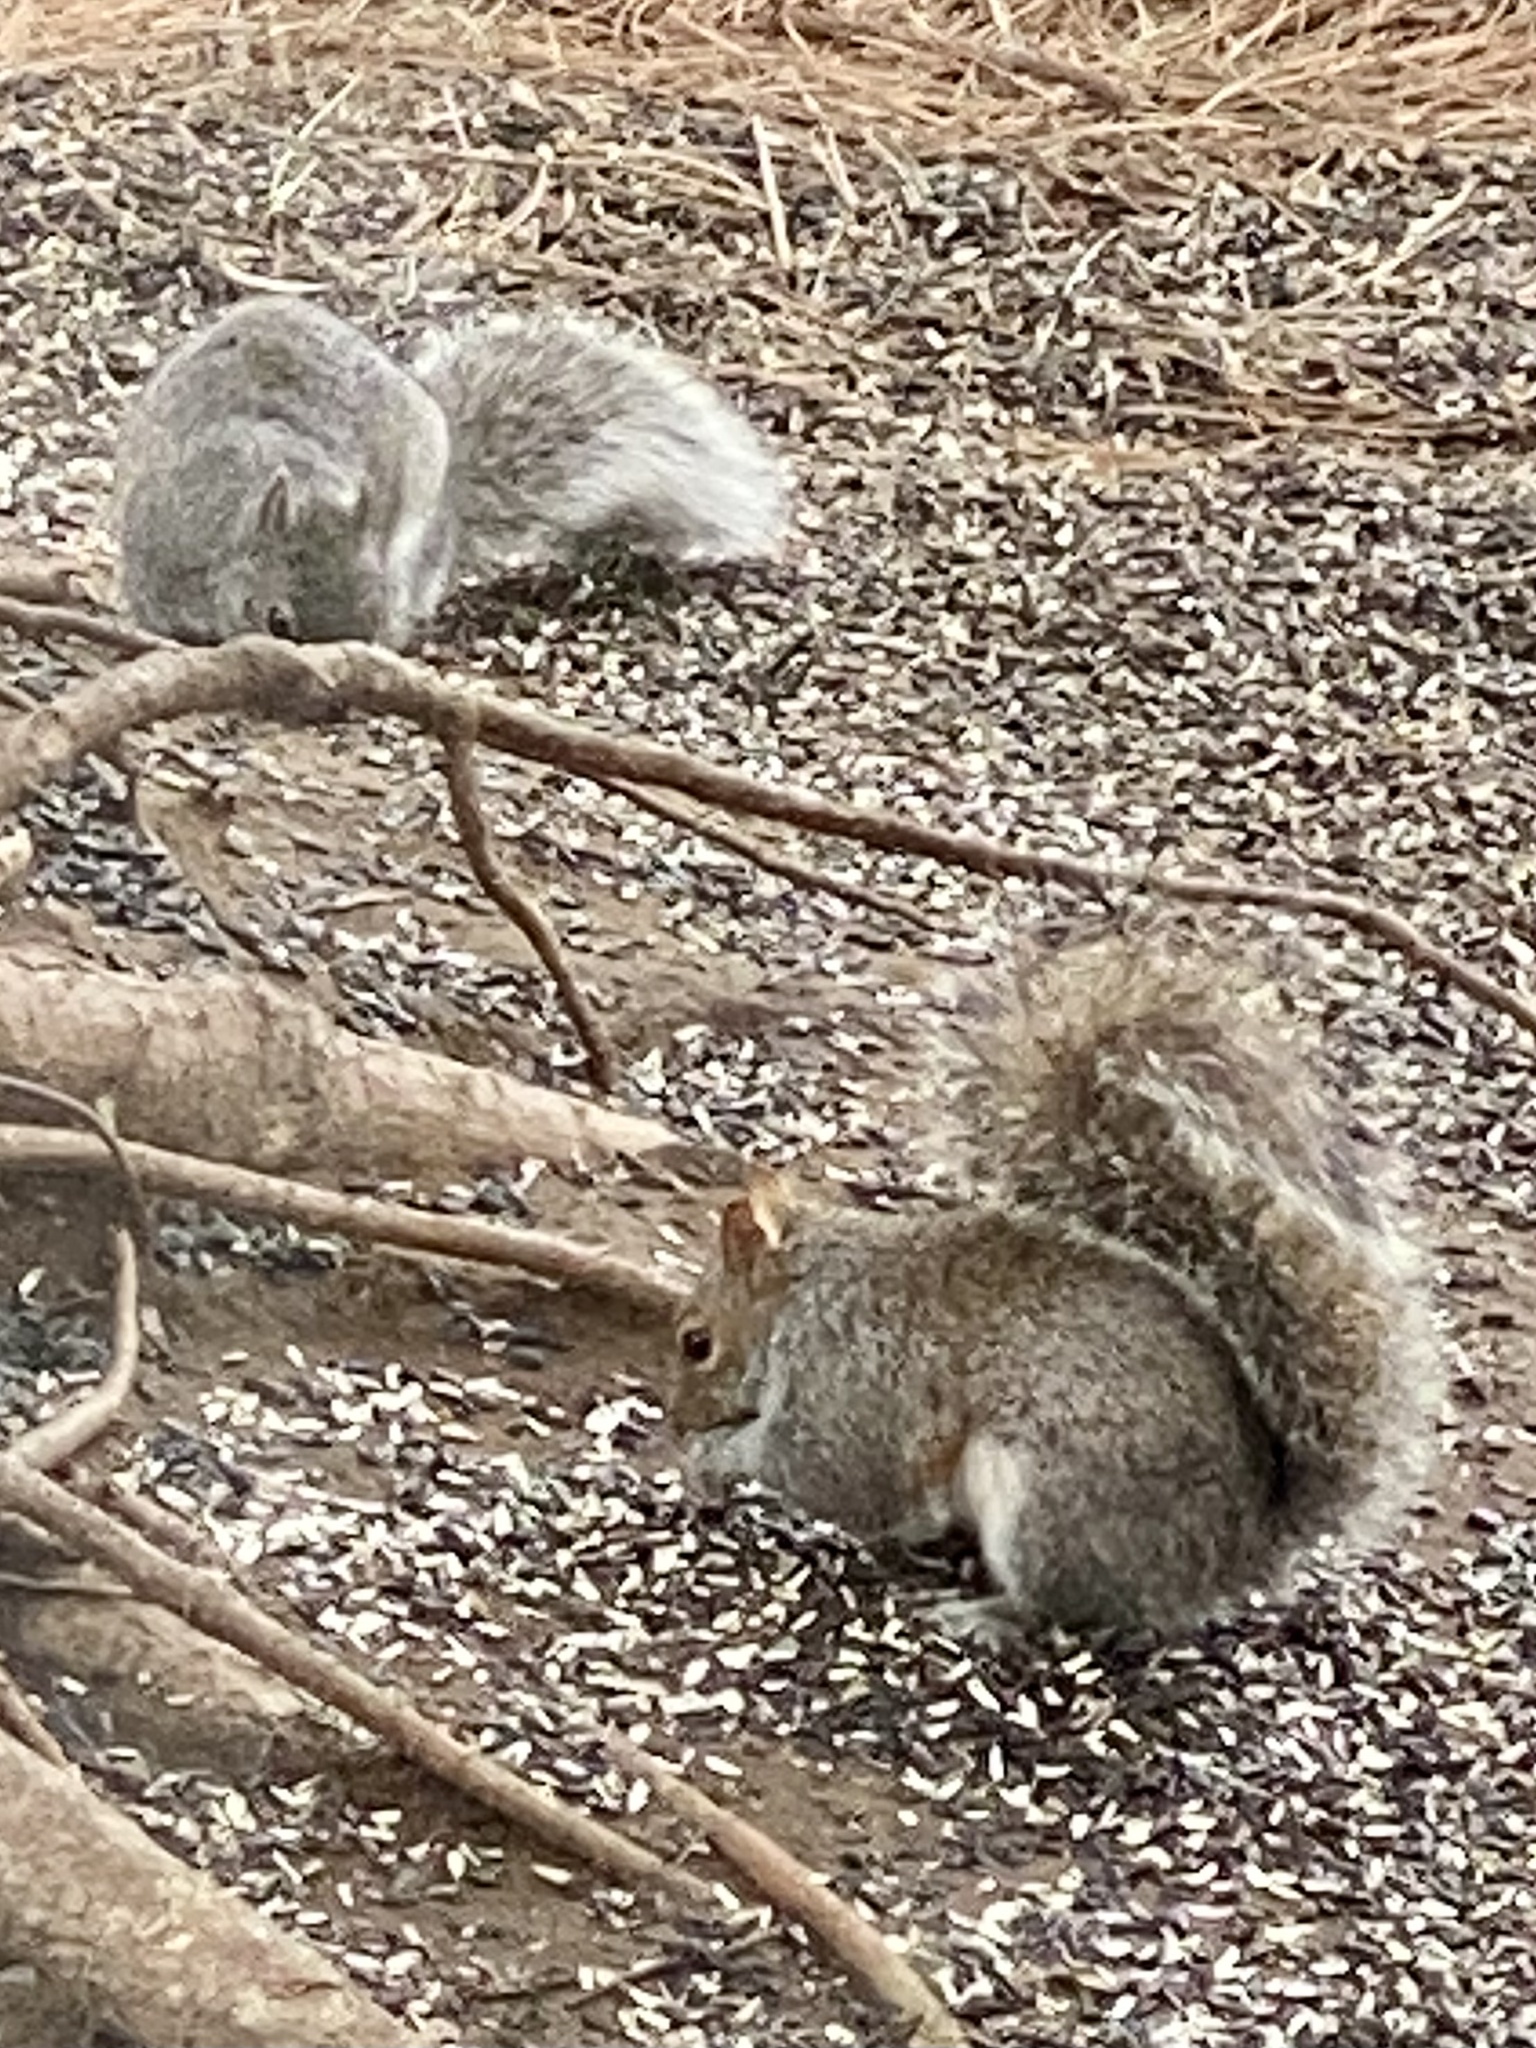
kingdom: Animalia
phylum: Chordata
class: Mammalia
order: Rodentia
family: Sciuridae
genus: Sciurus
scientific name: Sciurus carolinensis
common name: Eastern gray squirrel
